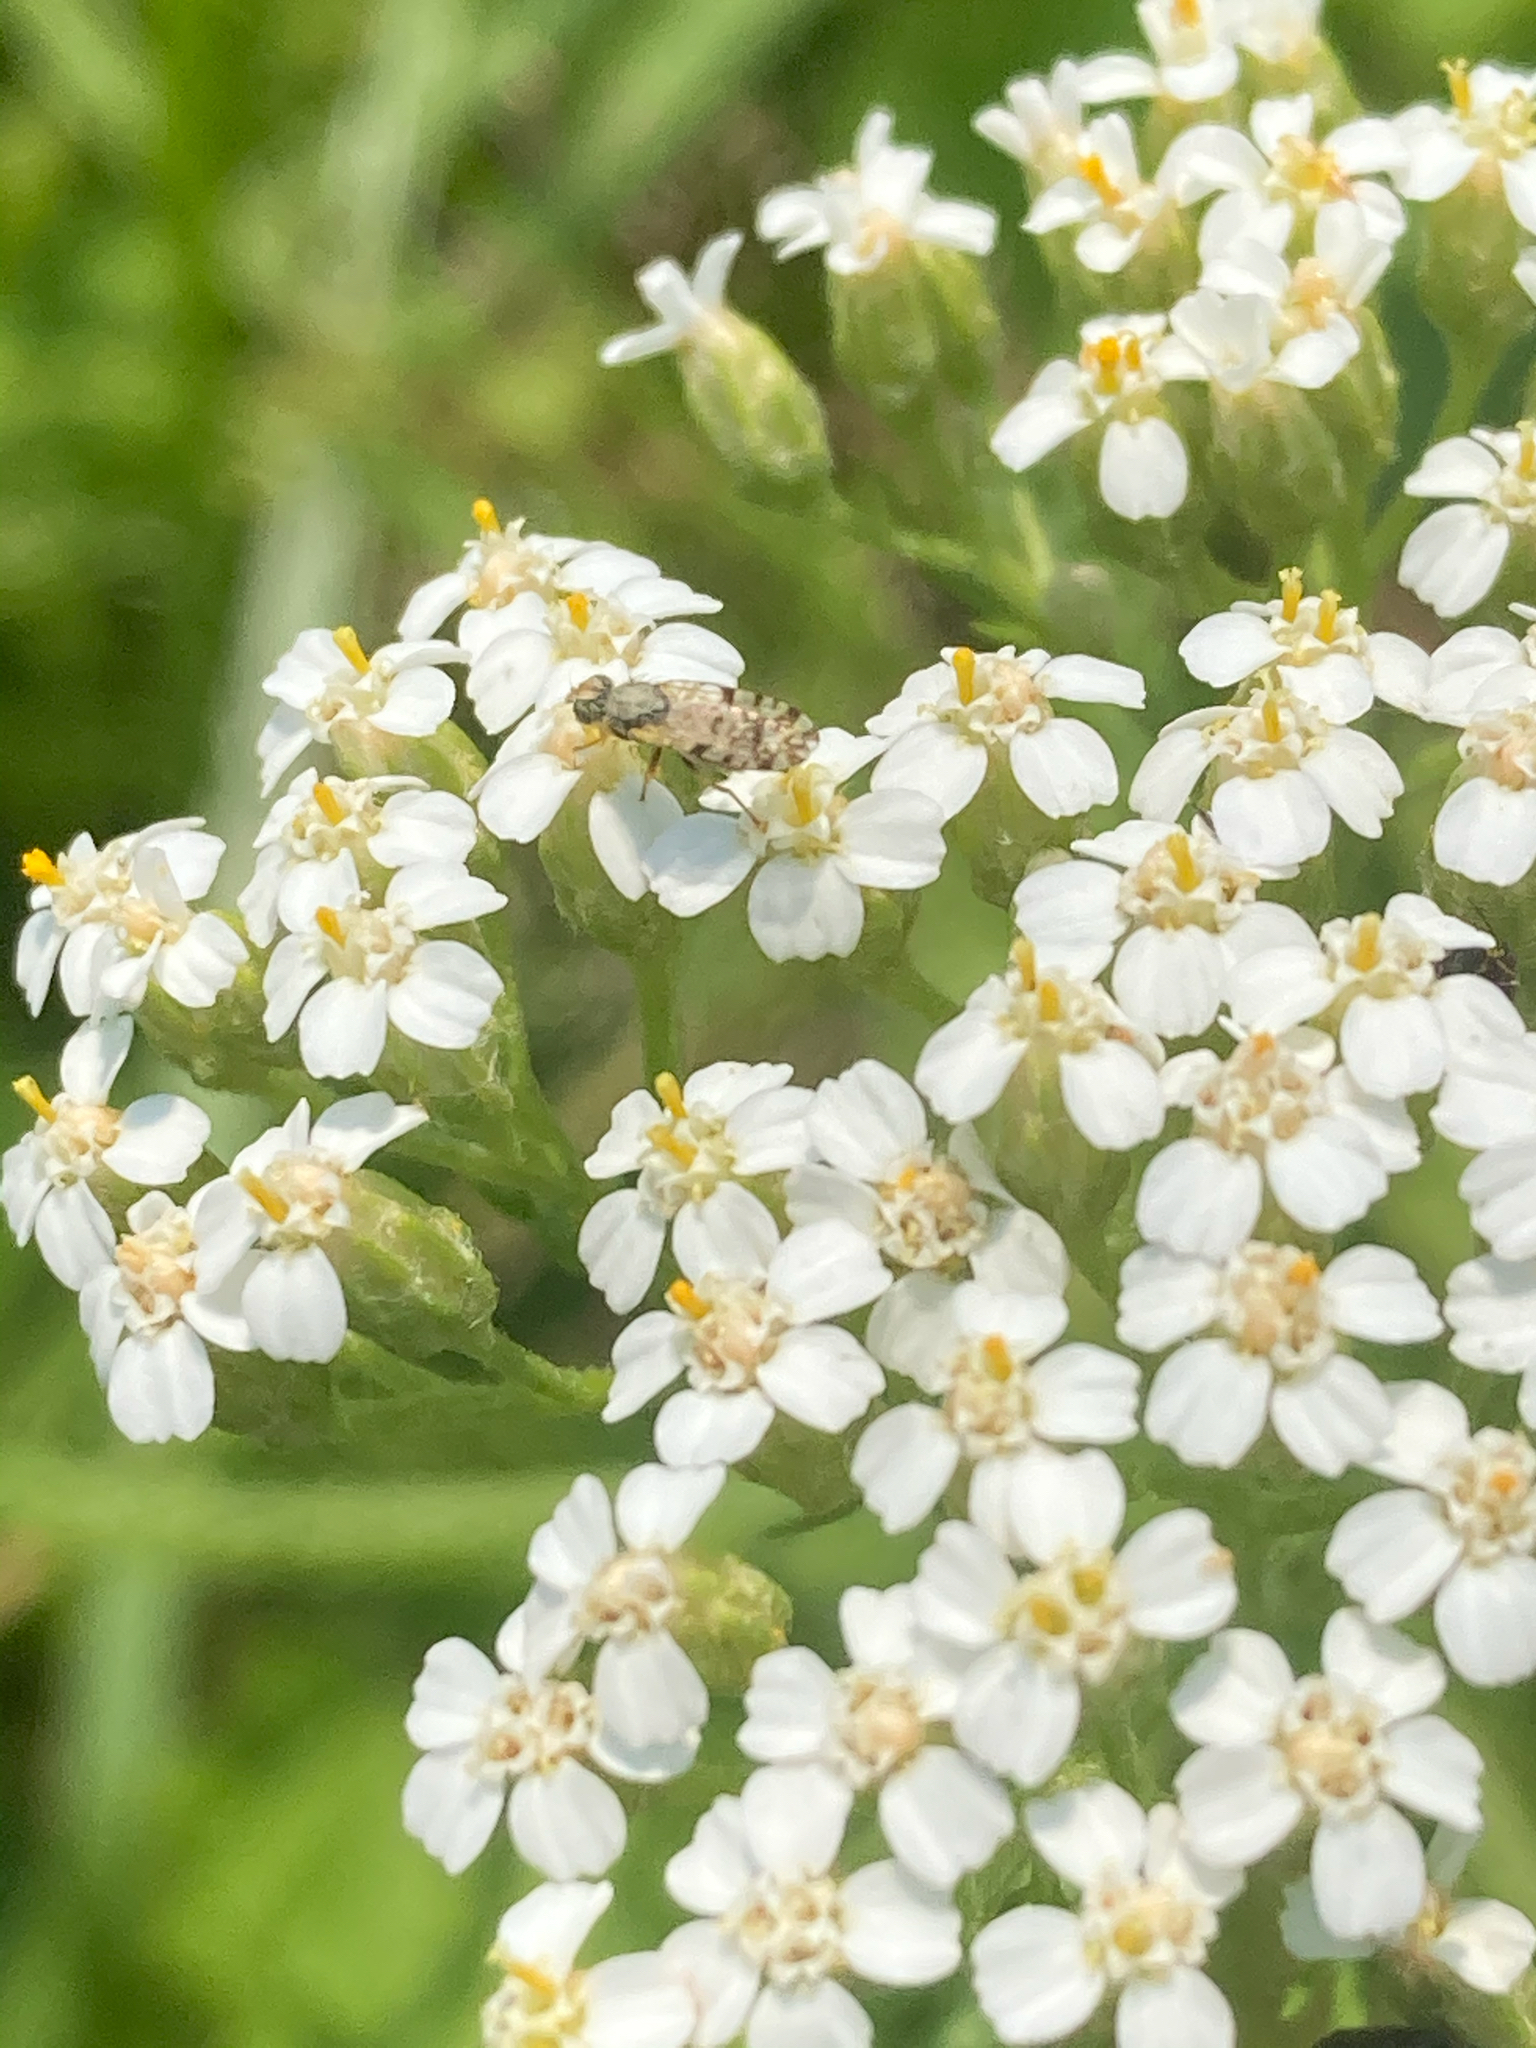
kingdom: Animalia
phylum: Arthropoda
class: Insecta
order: Diptera
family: Tephritidae
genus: Dioxyna
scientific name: Dioxyna picciola
